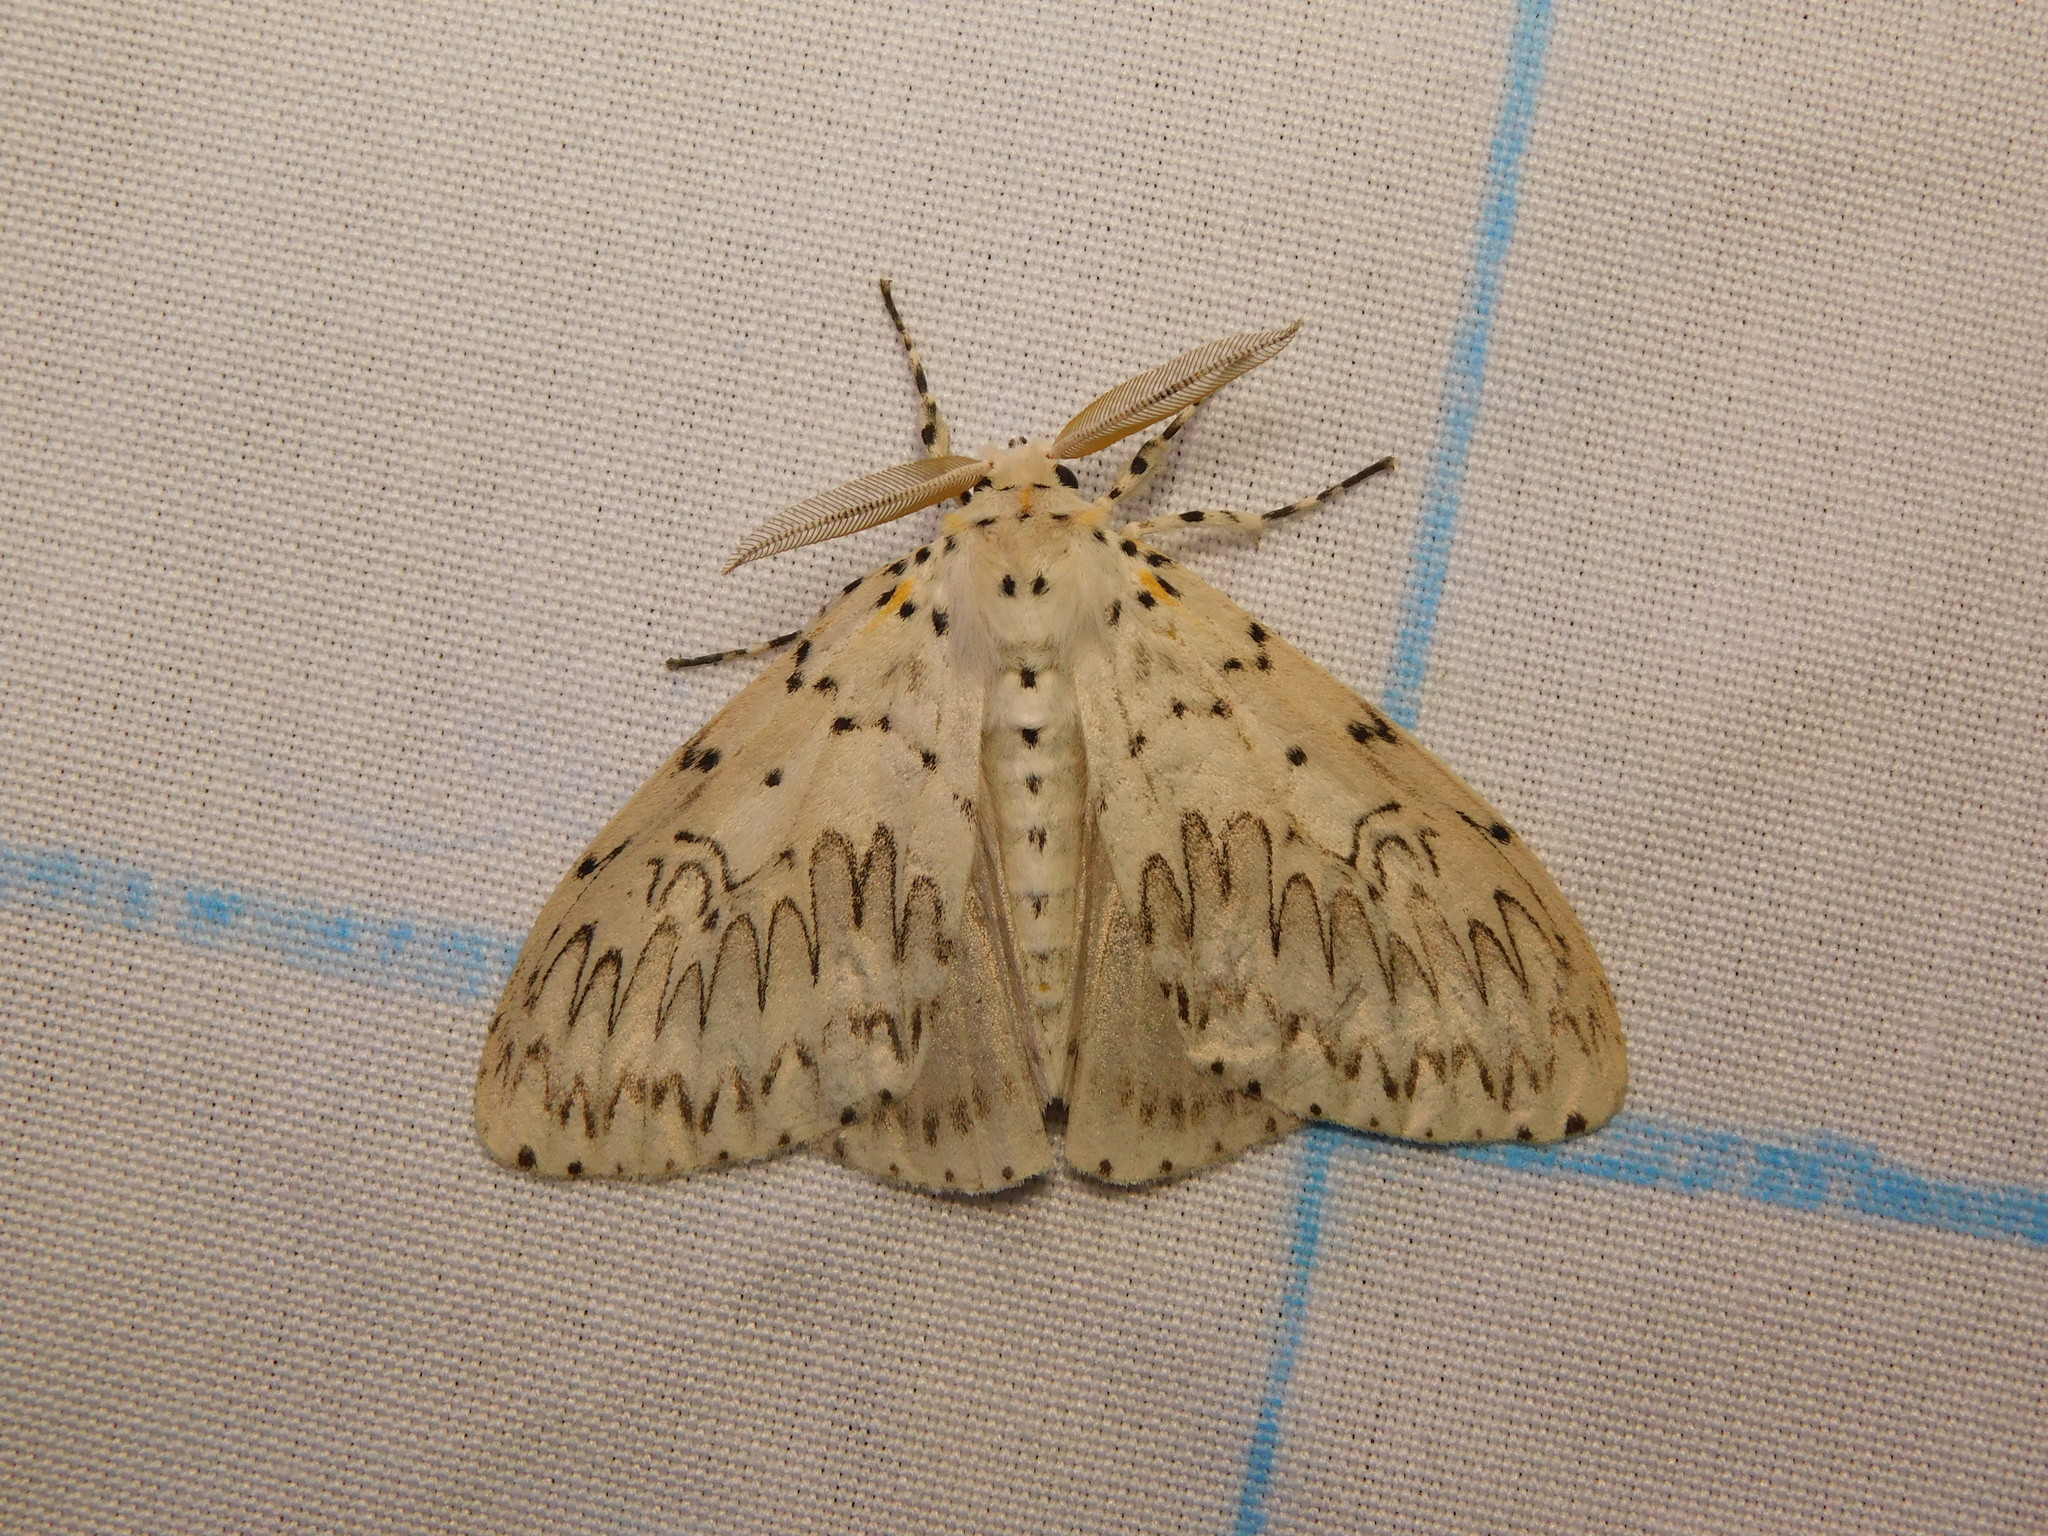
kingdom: Animalia
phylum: Arthropoda
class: Insecta
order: Lepidoptera
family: Erebidae
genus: Psilochira
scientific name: Psilochira lineata
